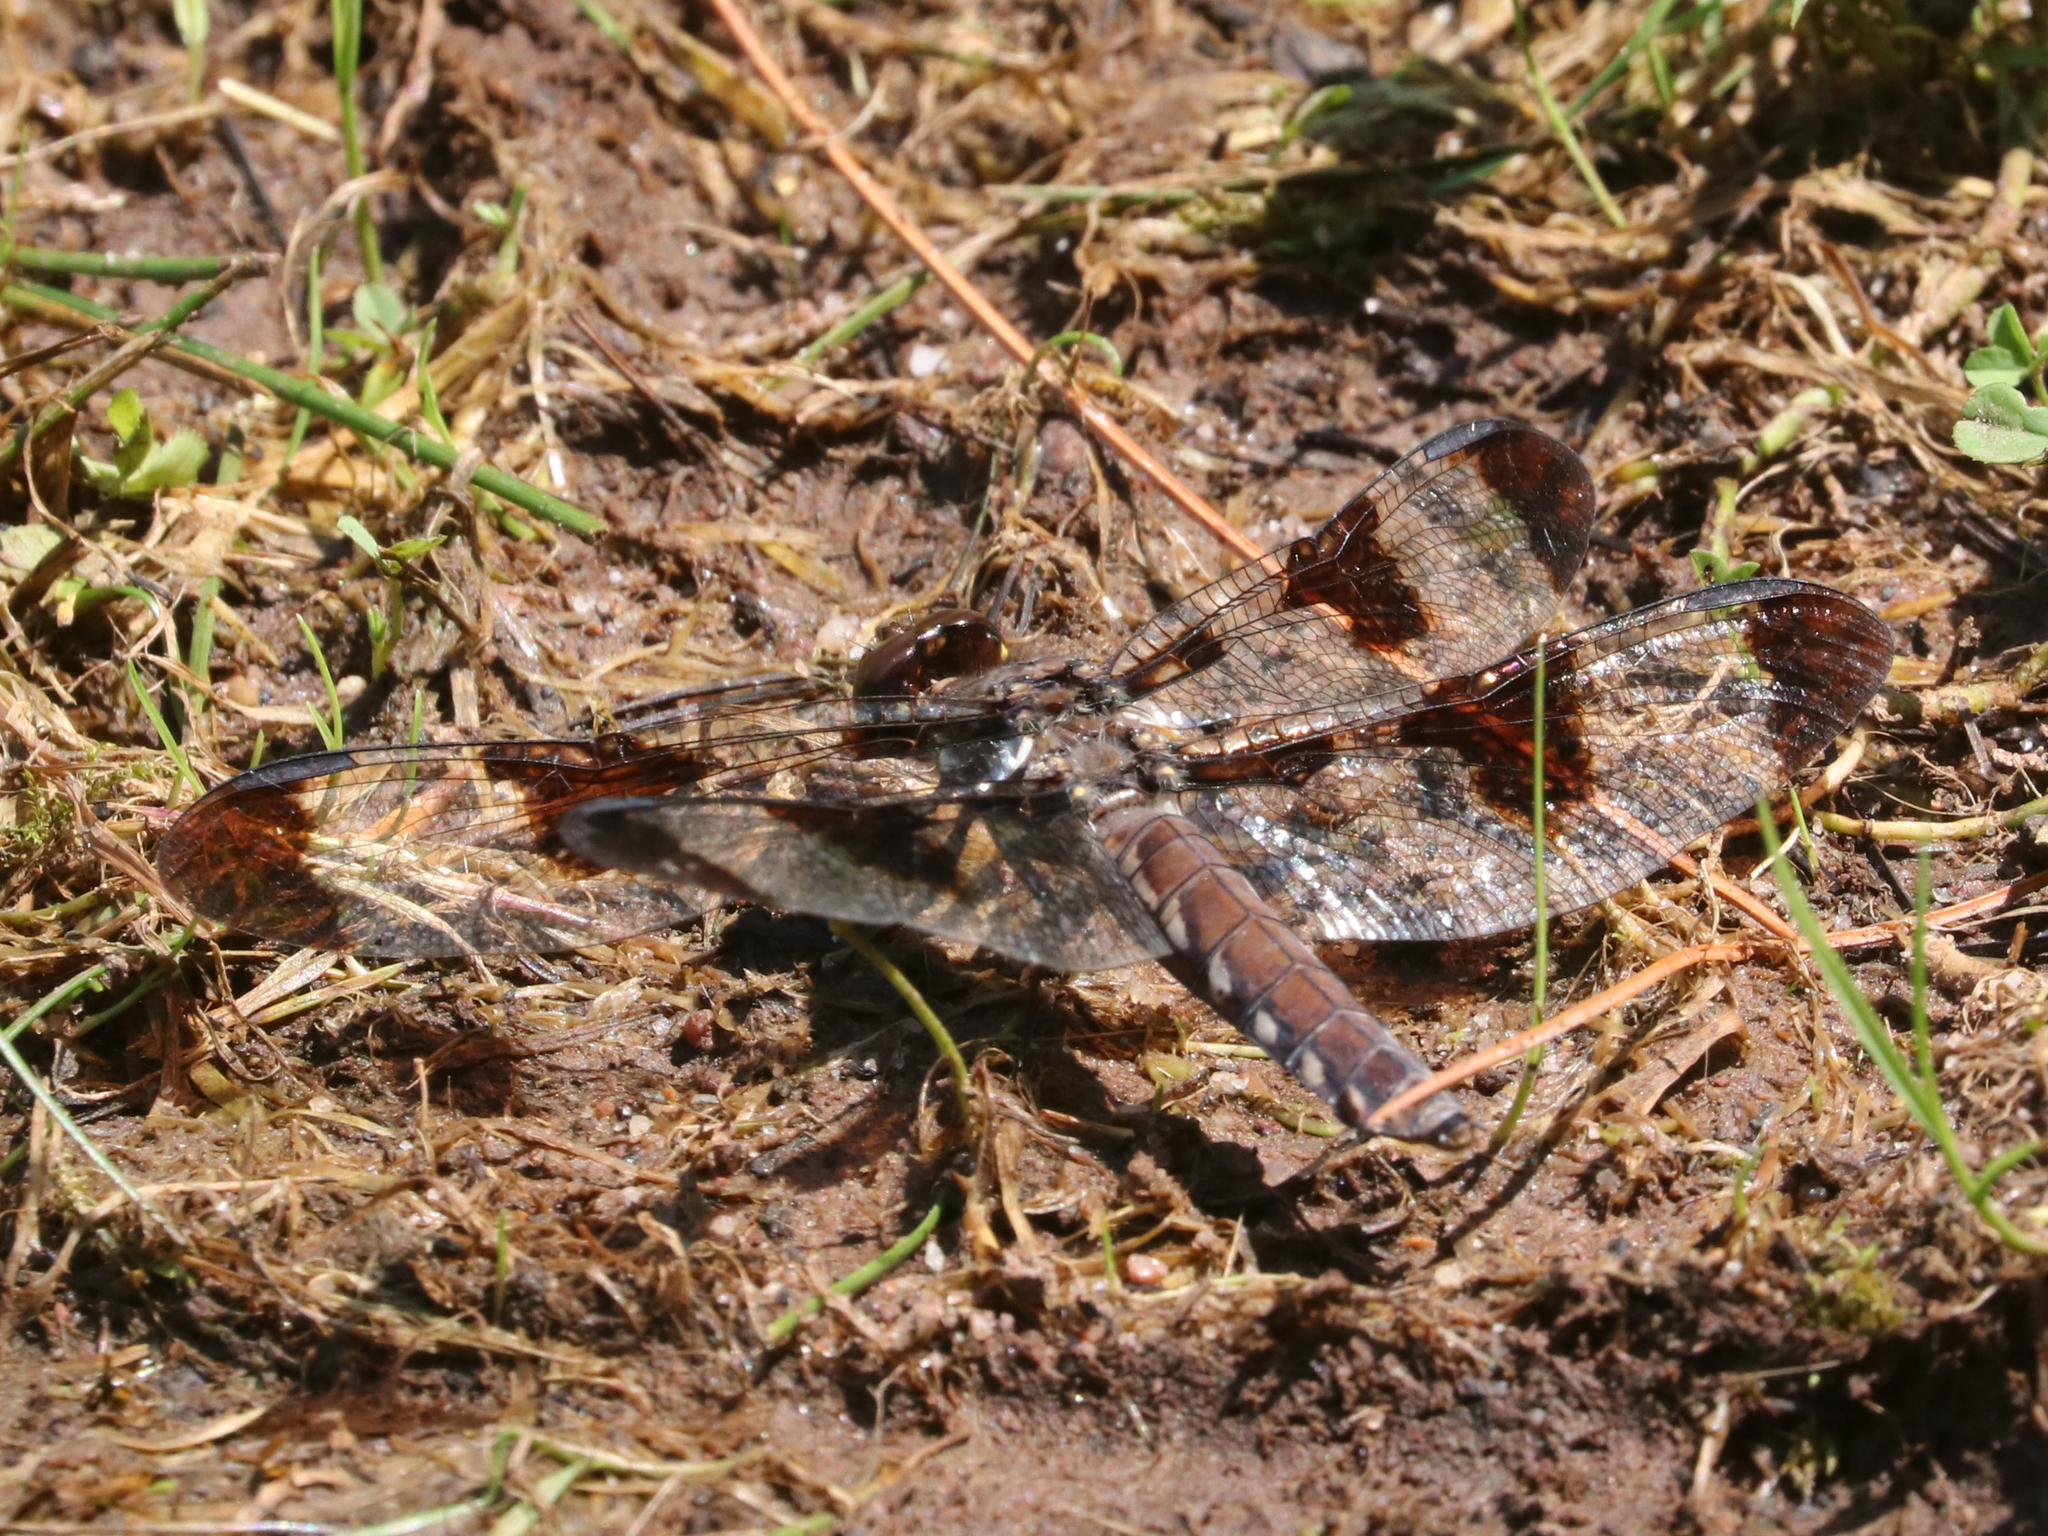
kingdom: Animalia
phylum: Arthropoda
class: Insecta
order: Odonata
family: Libellulidae
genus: Plathemis
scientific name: Plathemis lydia
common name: Common whitetail
